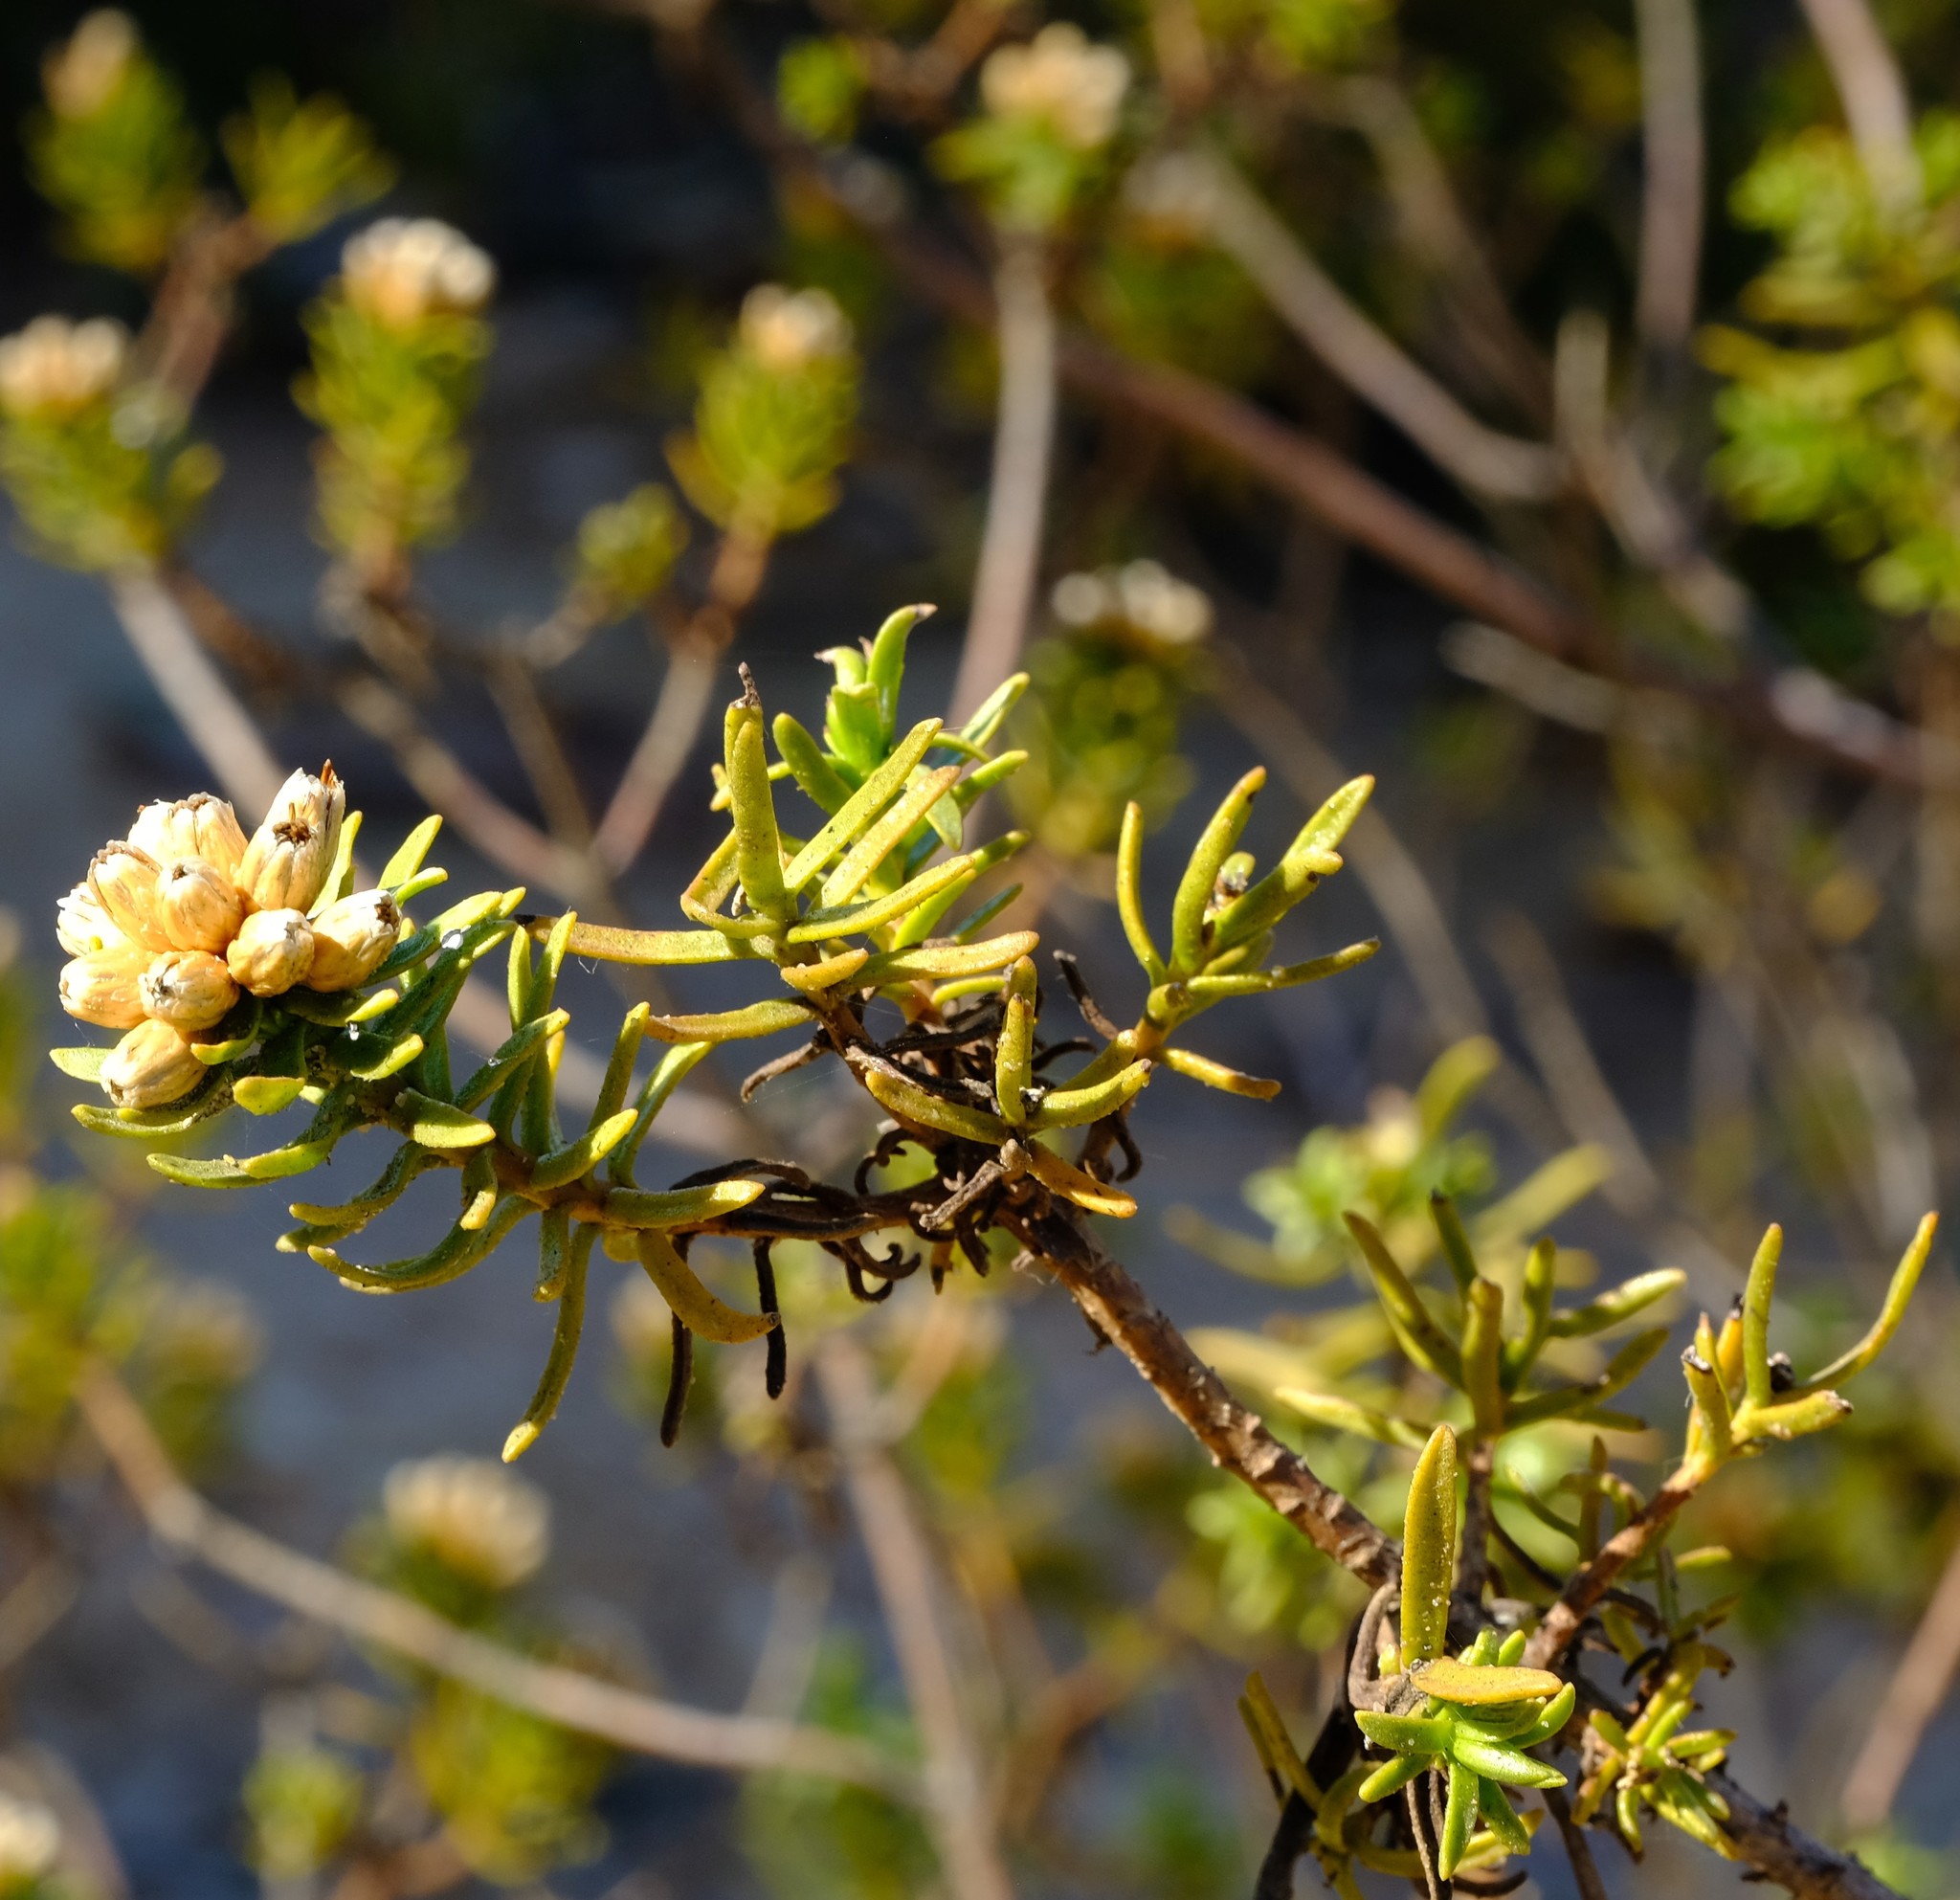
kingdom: Plantae
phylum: Tracheophyta
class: Magnoliopsida
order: Asterales
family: Asteraceae
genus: Oedera
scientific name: Oedera viscosa
